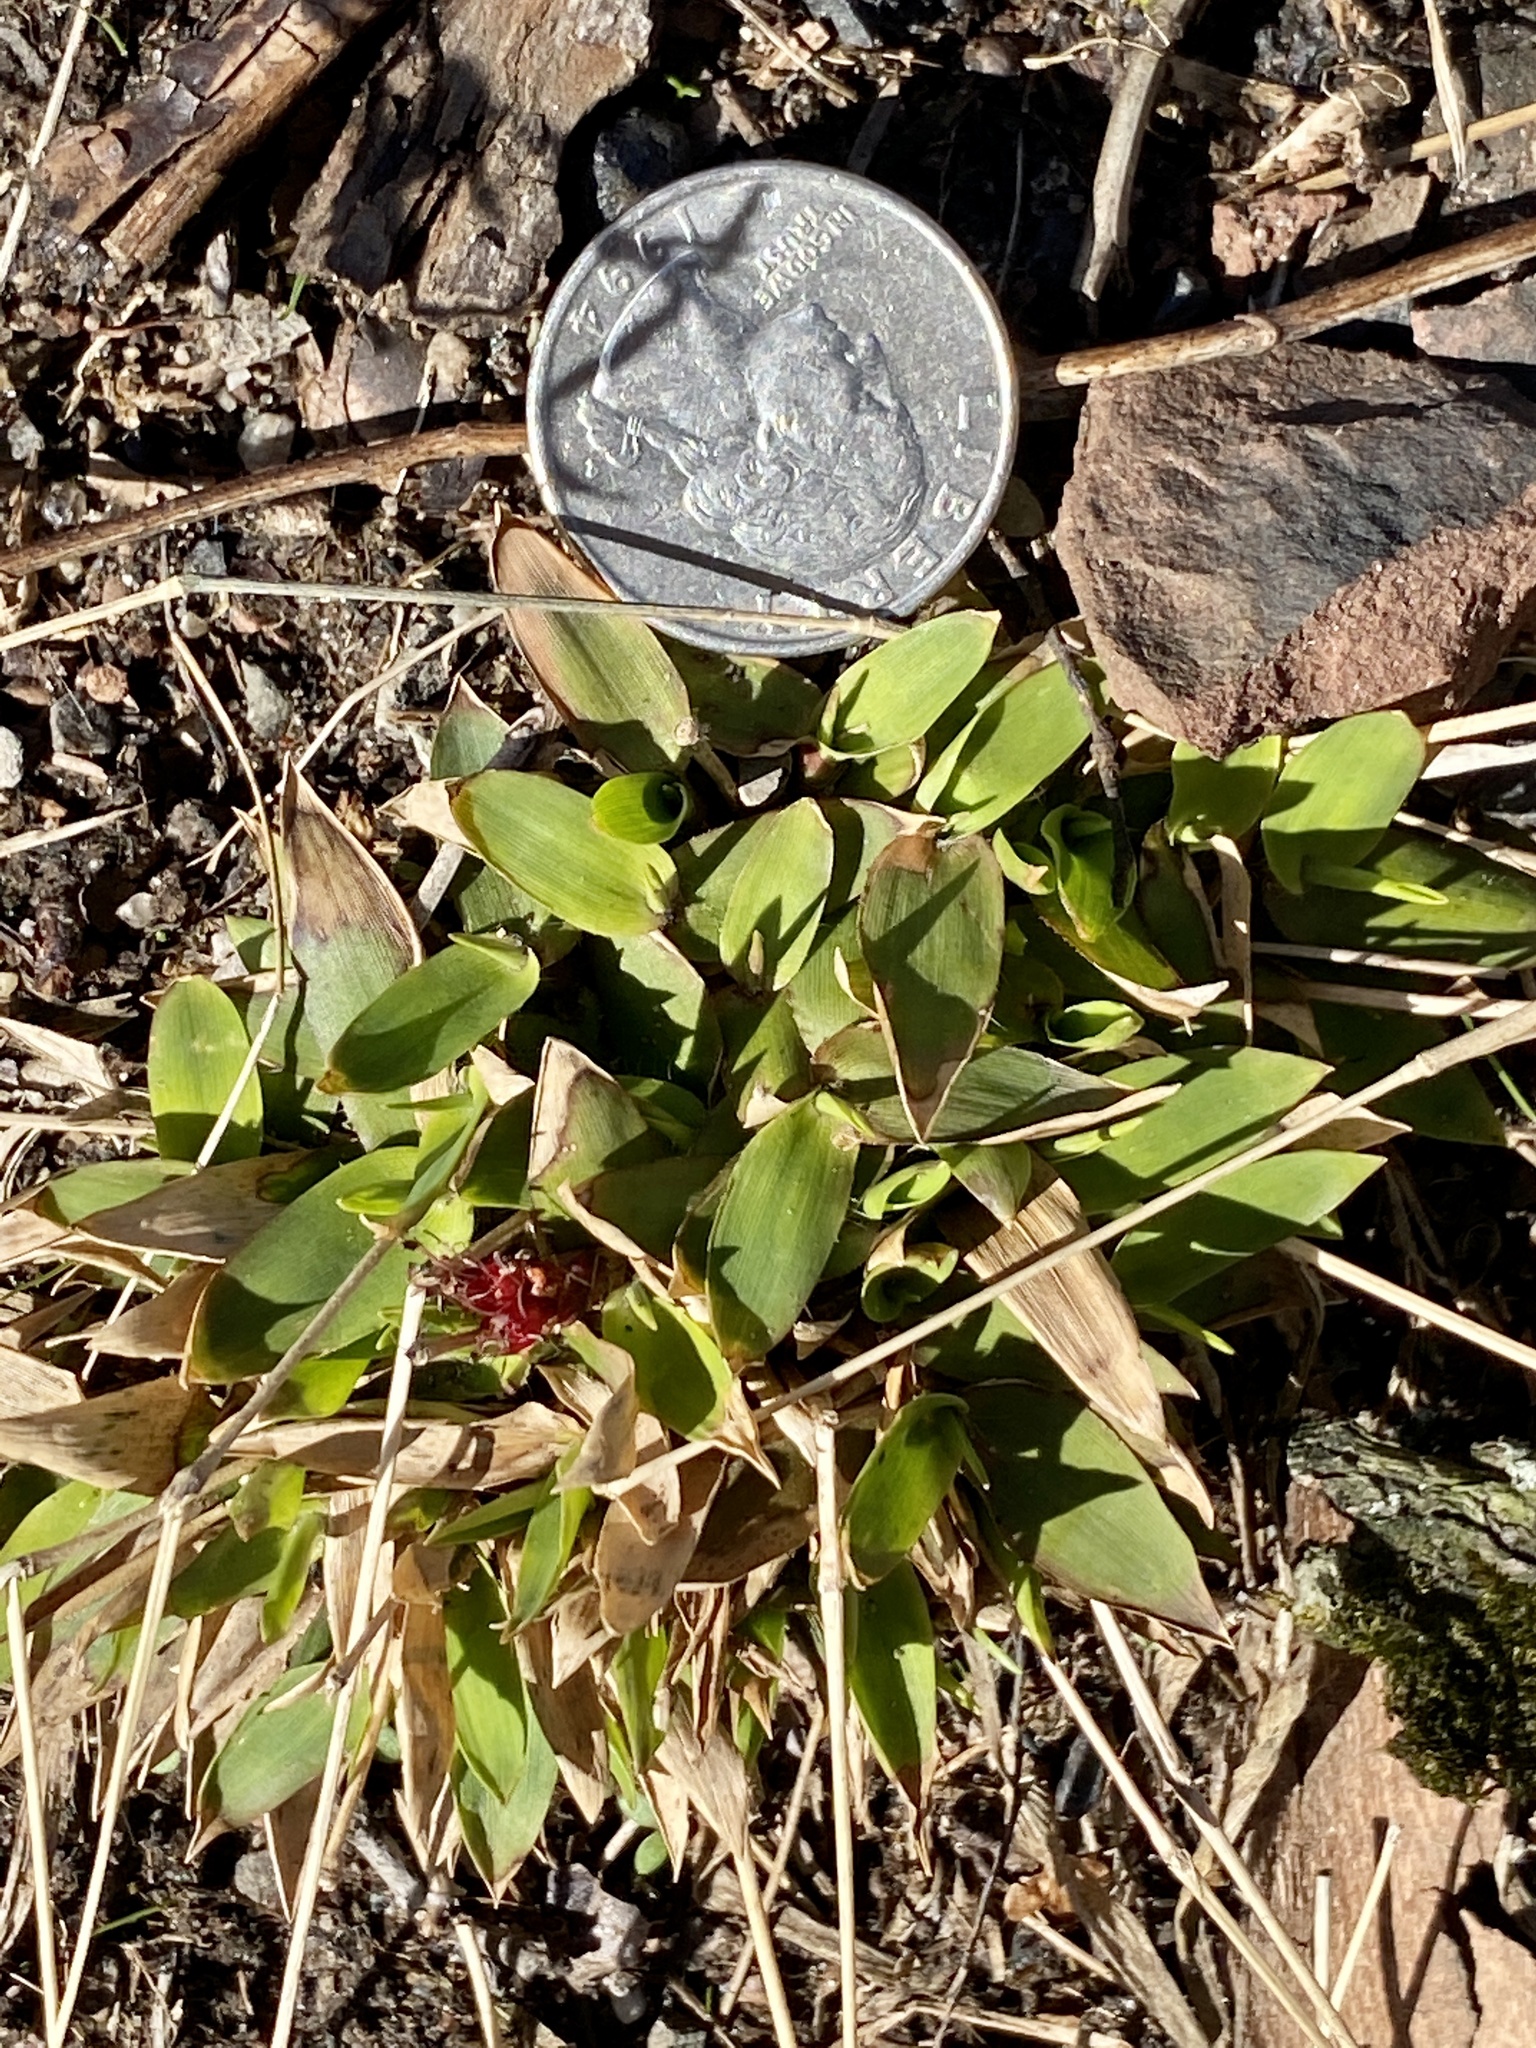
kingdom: Plantae
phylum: Tracheophyta
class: Liliopsida
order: Poales
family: Poaceae
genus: Dichanthelium
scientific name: Dichanthelium clandestinum
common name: Deer-tongue grass
